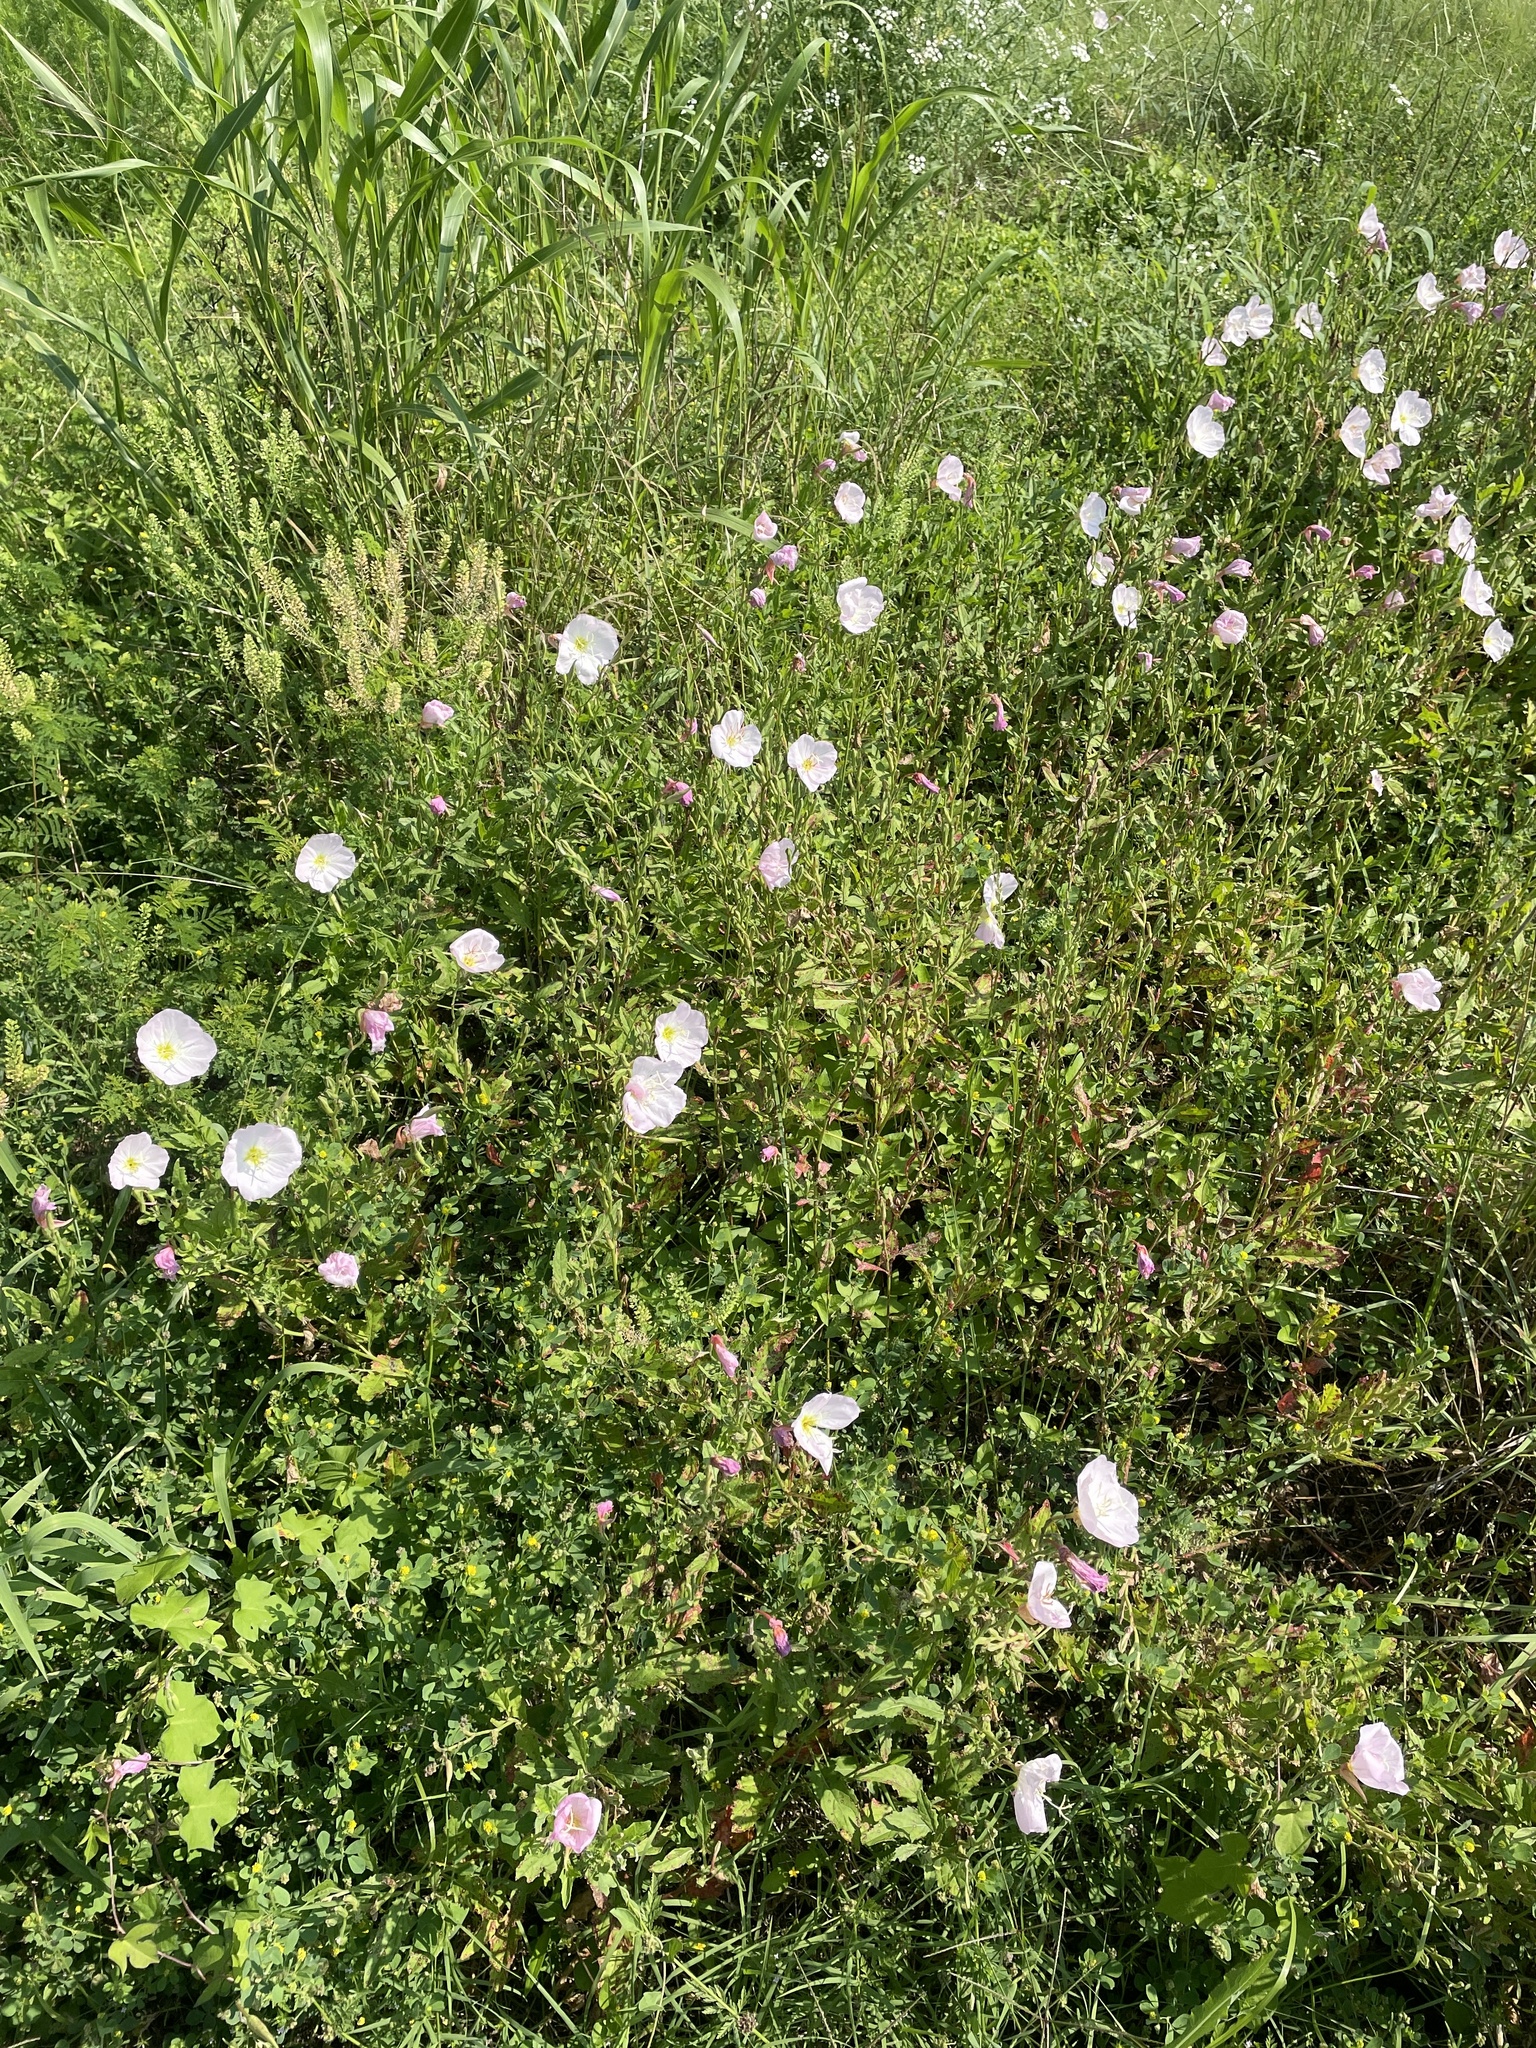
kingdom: Plantae
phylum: Tracheophyta
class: Magnoliopsida
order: Myrtales
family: Onagraceae
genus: Oenothera
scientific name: Oenothera speciosa
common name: White evening-primrose
